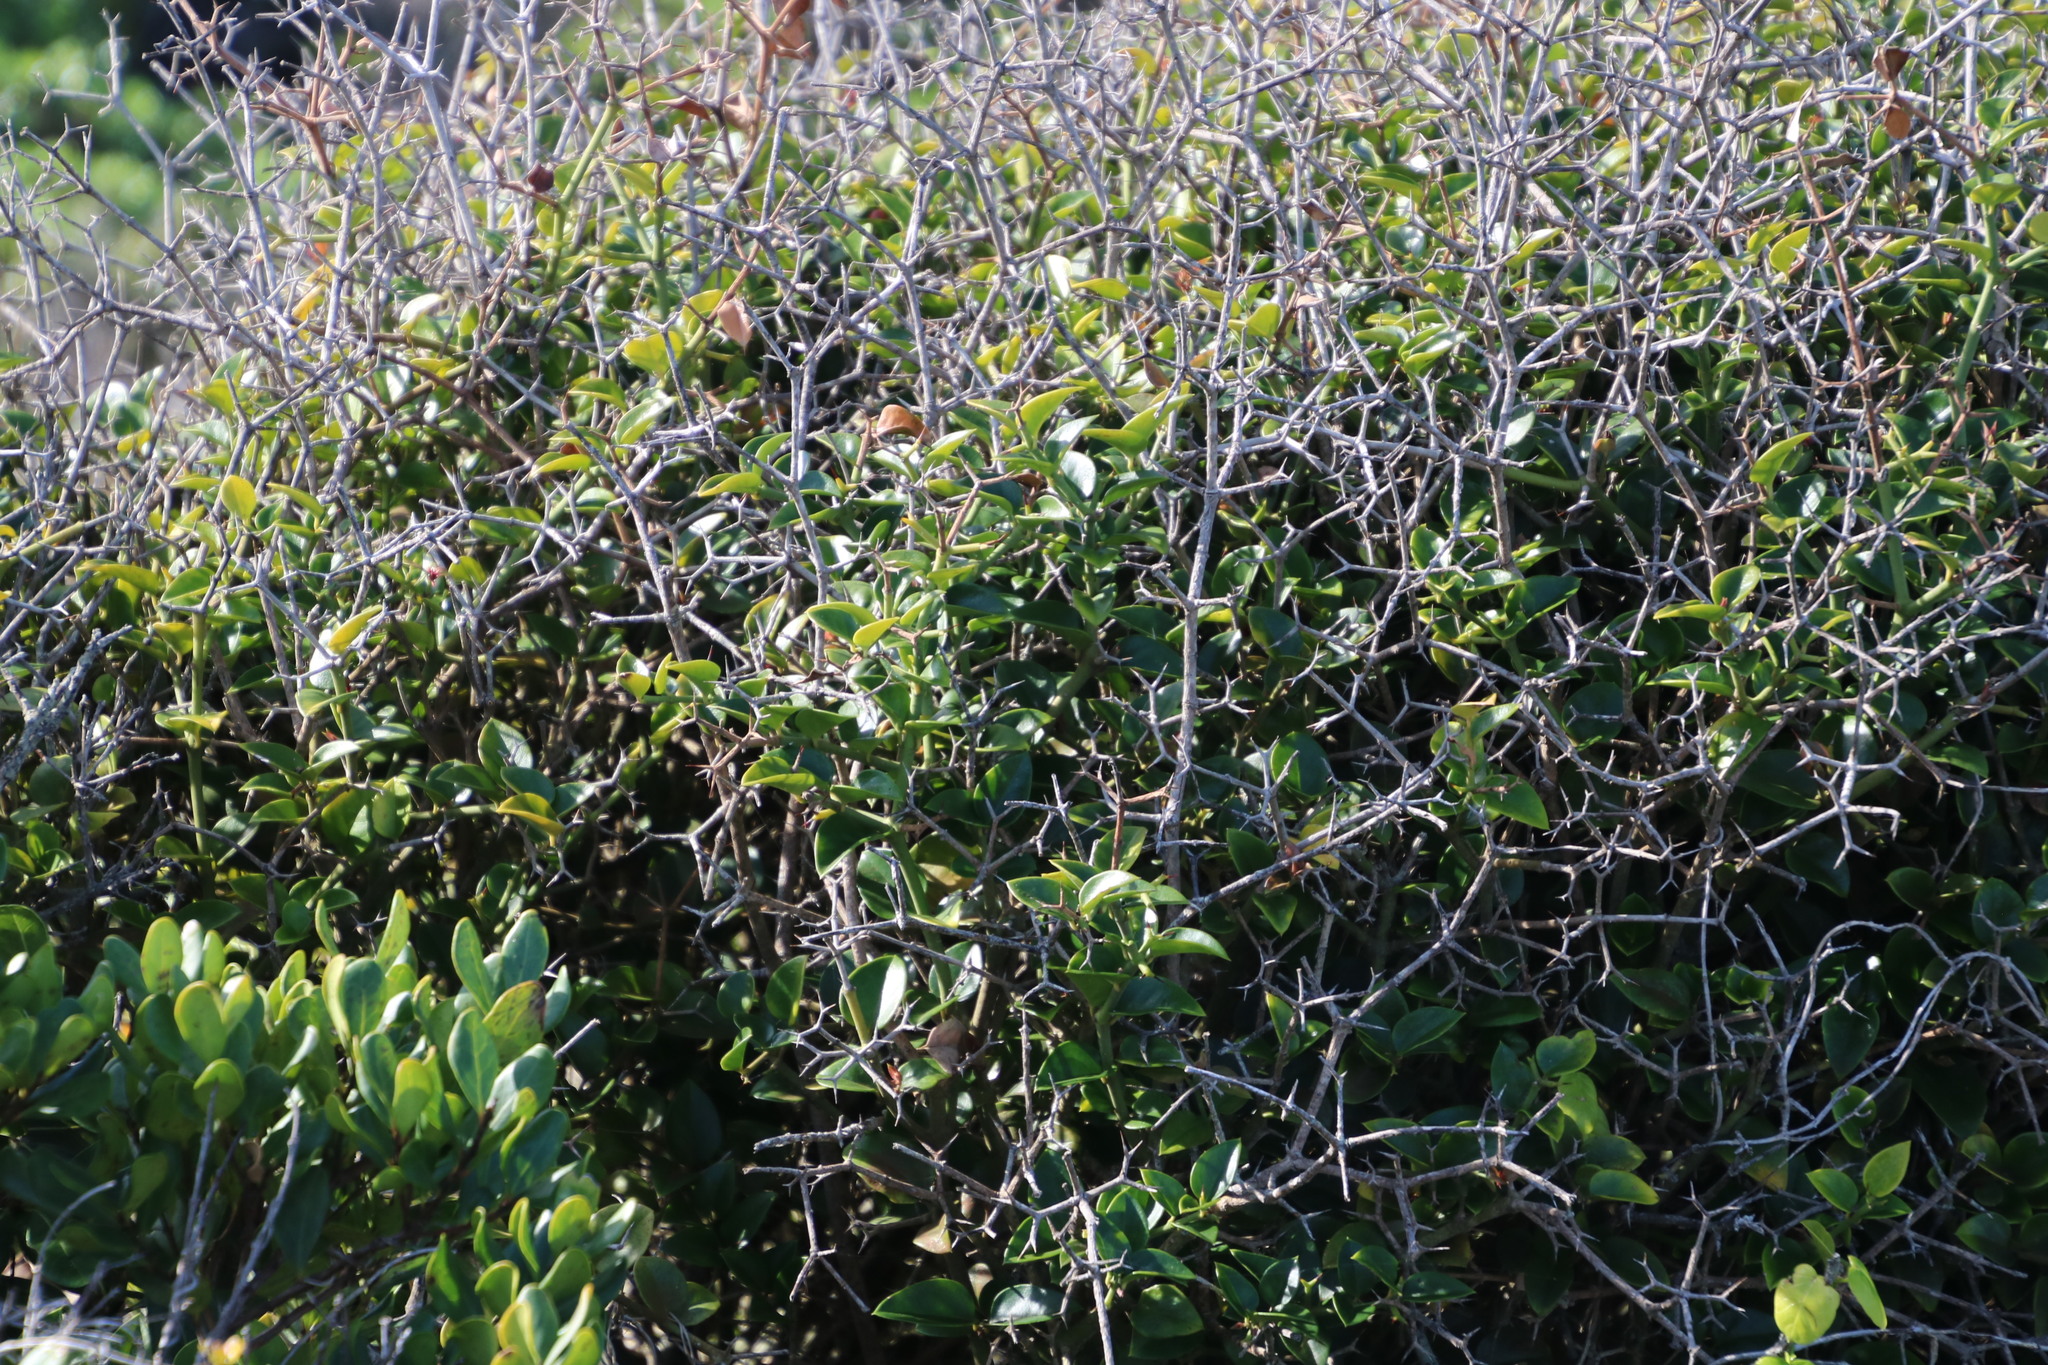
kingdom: Plantae
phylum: Tracheophyta
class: Magnoliopsida
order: Gentianales
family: Apocynaceae
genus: Carissa
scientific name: Carissa bispinosa
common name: Forest num-num
